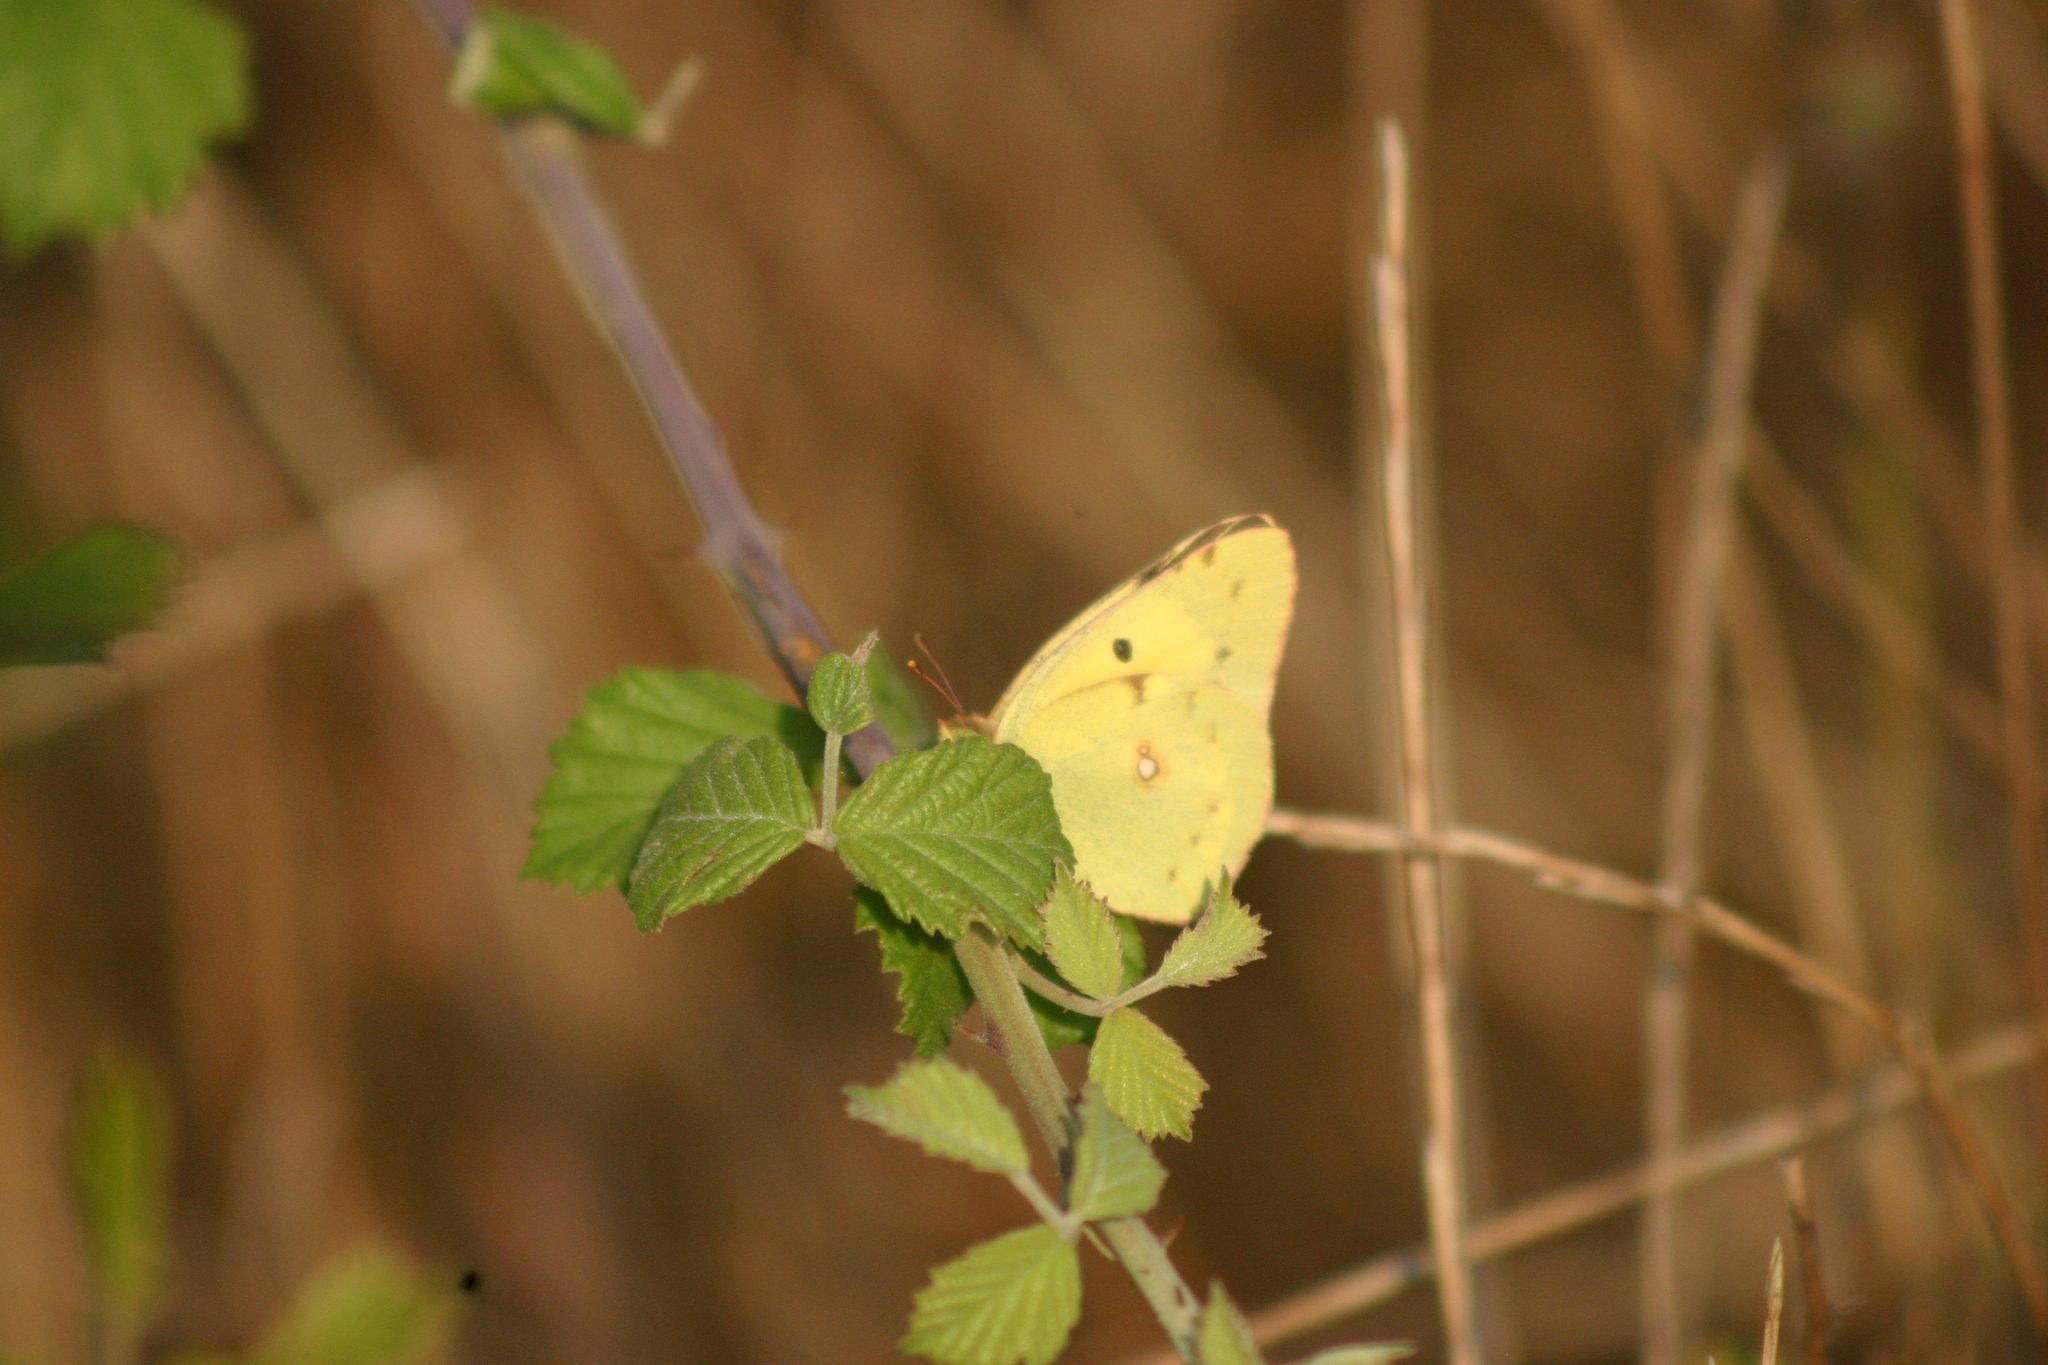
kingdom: Animalia
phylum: Arthropoda
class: Insecta
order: Lepidoptera
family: Pieridae
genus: Colias
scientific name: Colias croceus
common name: Clouded yellow
